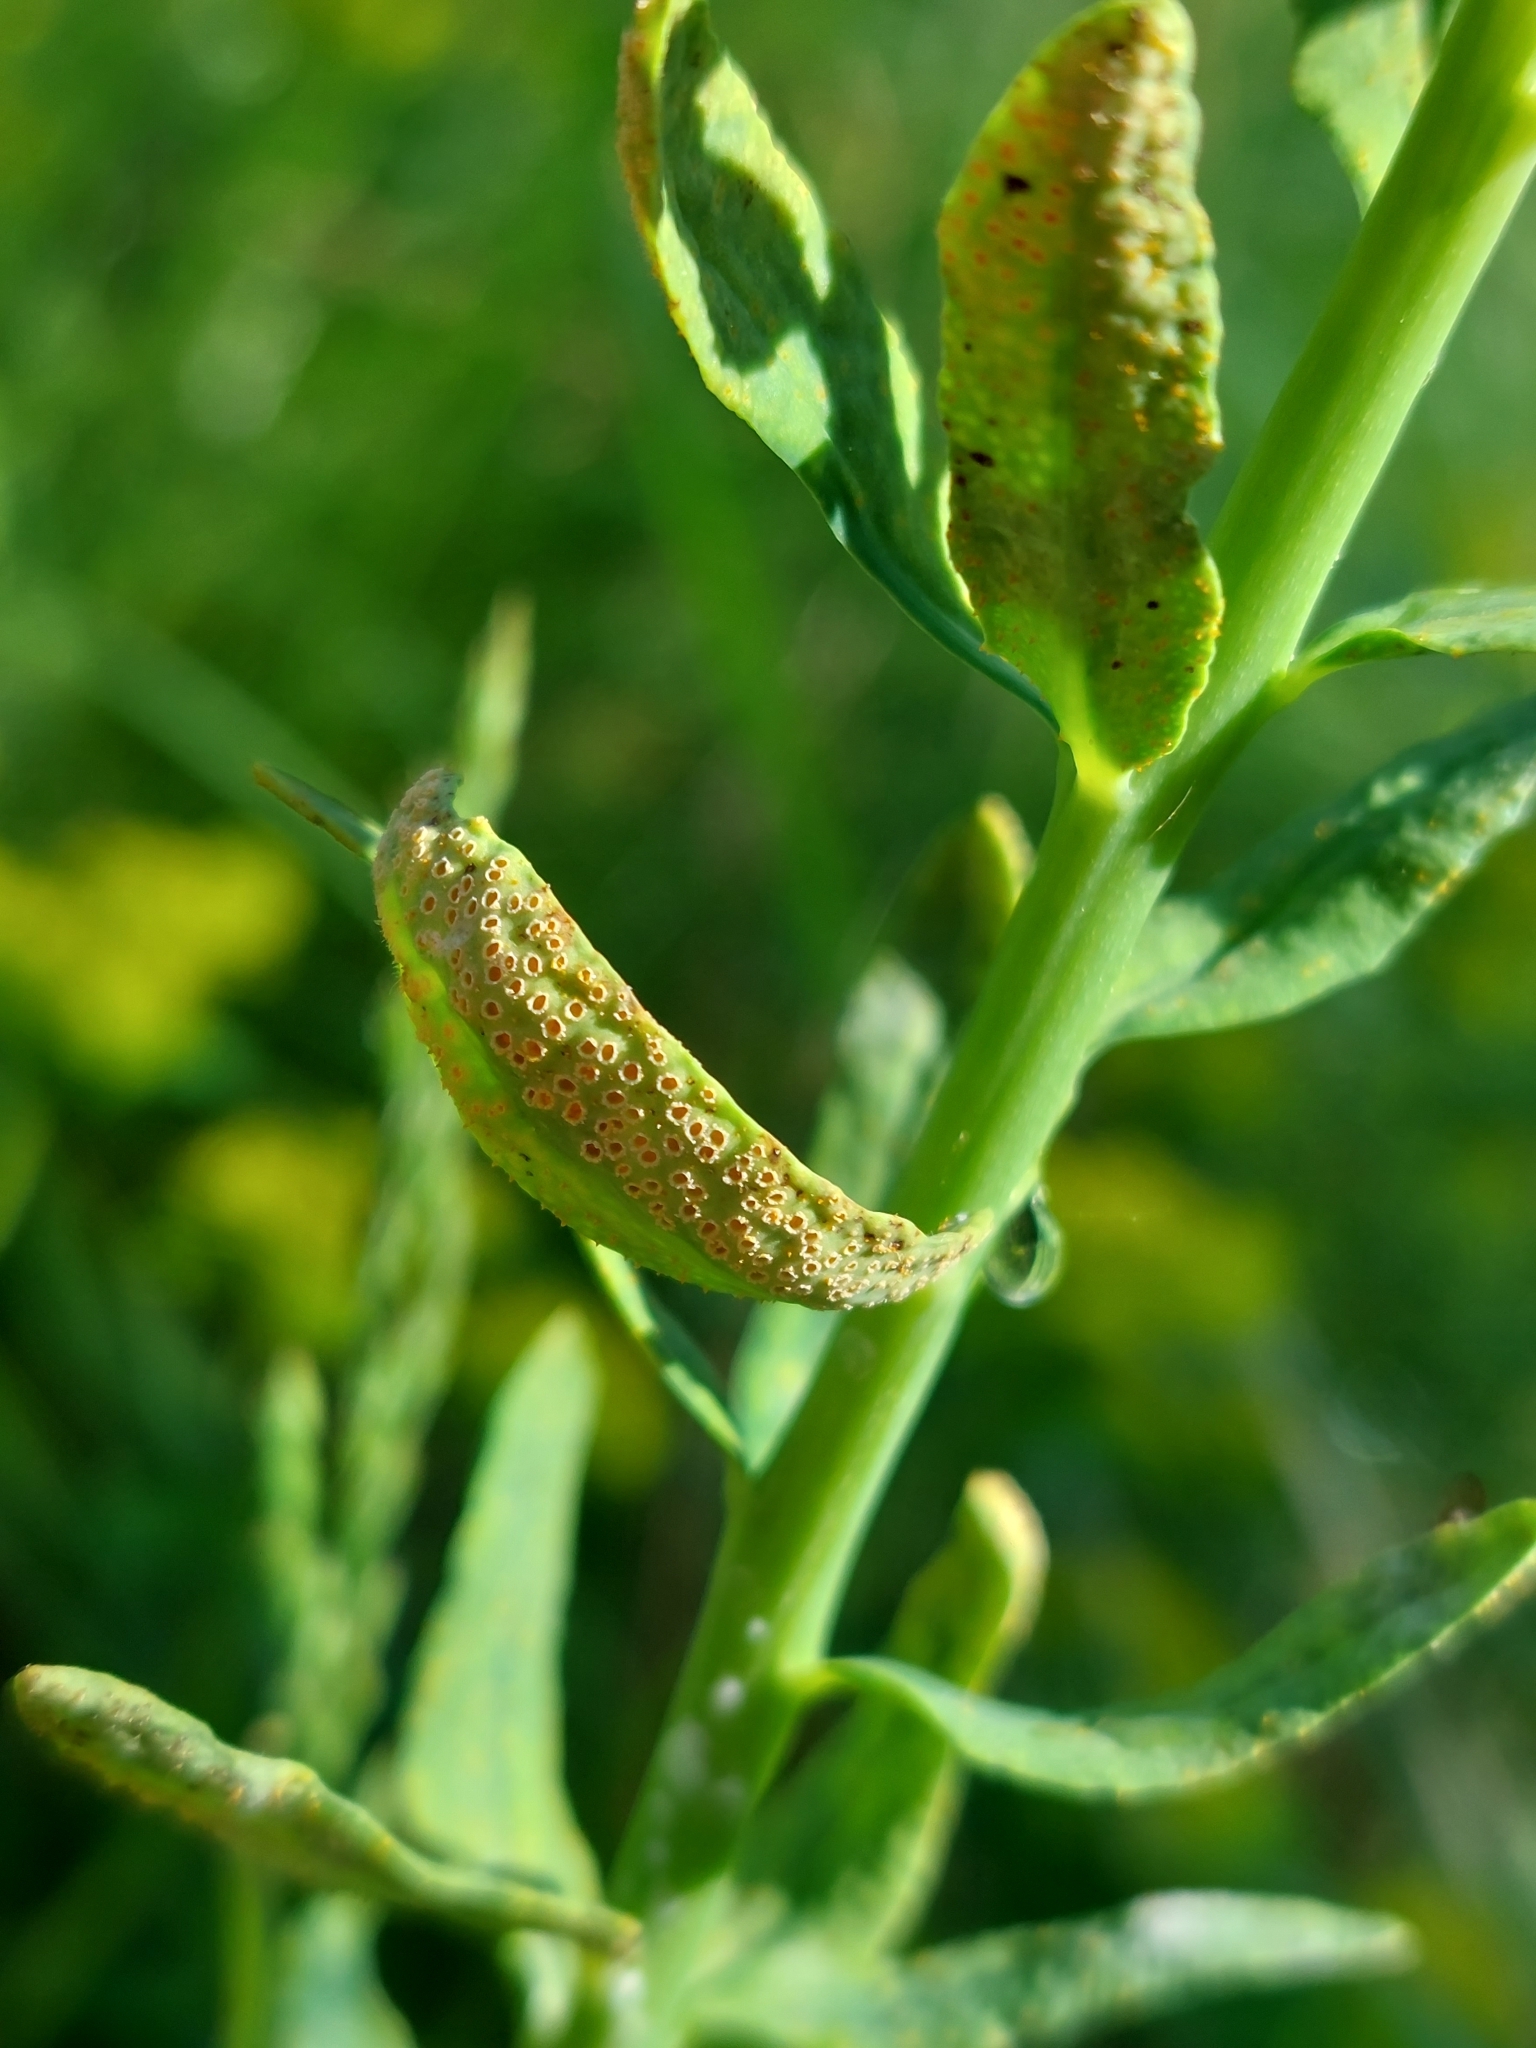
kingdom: Fungi
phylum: Basidiomycota
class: Pucciniomycetes
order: Pucciniales
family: Pucciniaceae
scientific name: Pucciniaceae
